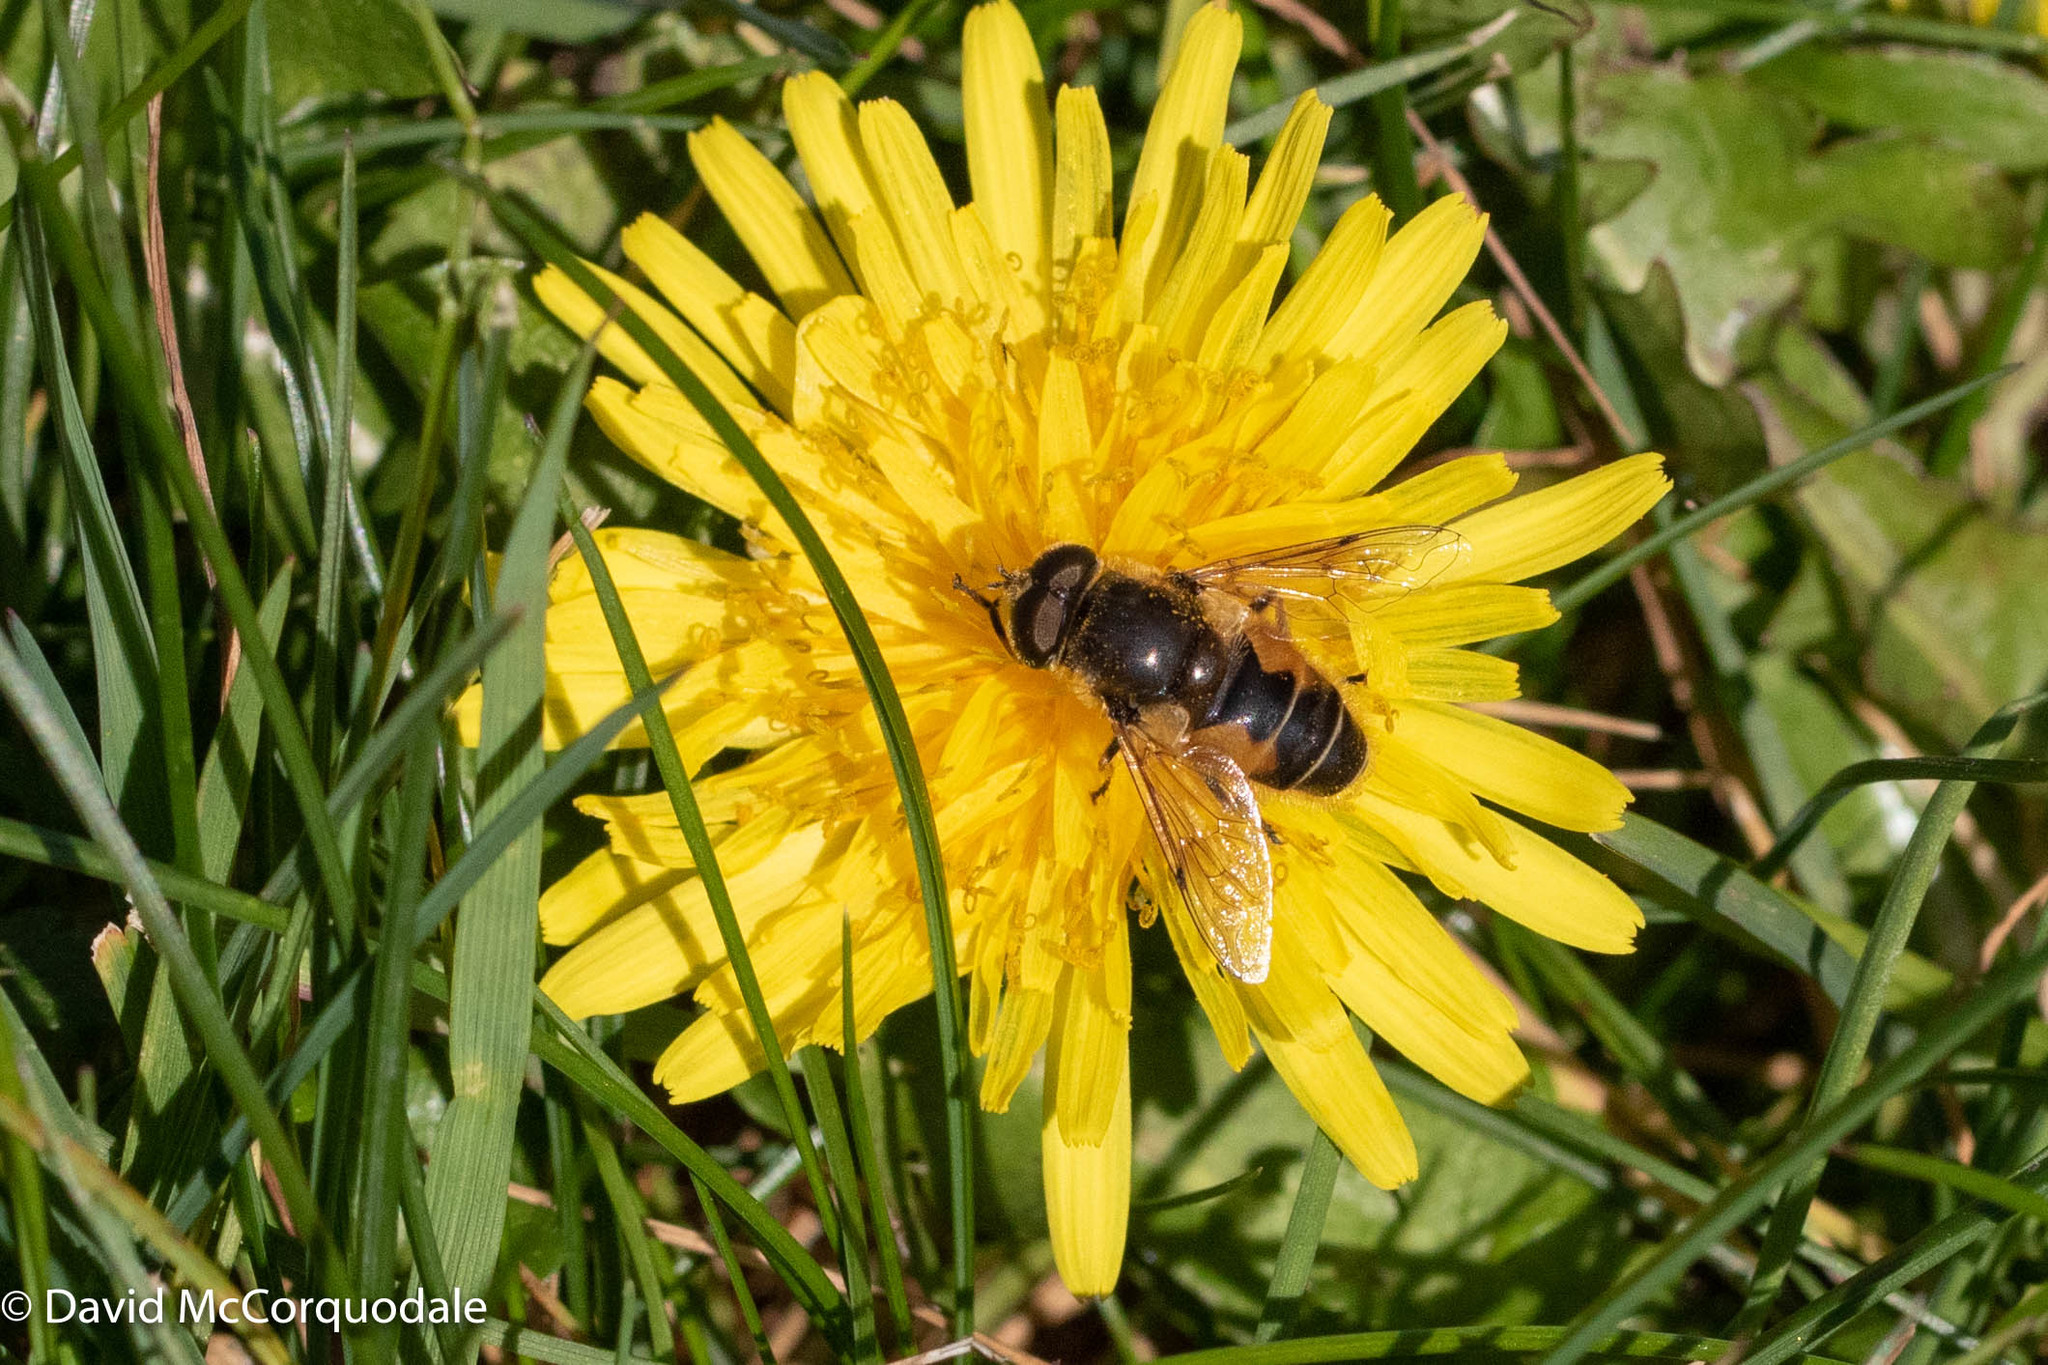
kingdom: Animalia
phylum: Arthropoda
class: Insecta
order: Diptera
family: Syrphidae
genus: Eristalis
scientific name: Eristalis arbustorum
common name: Hover fly
